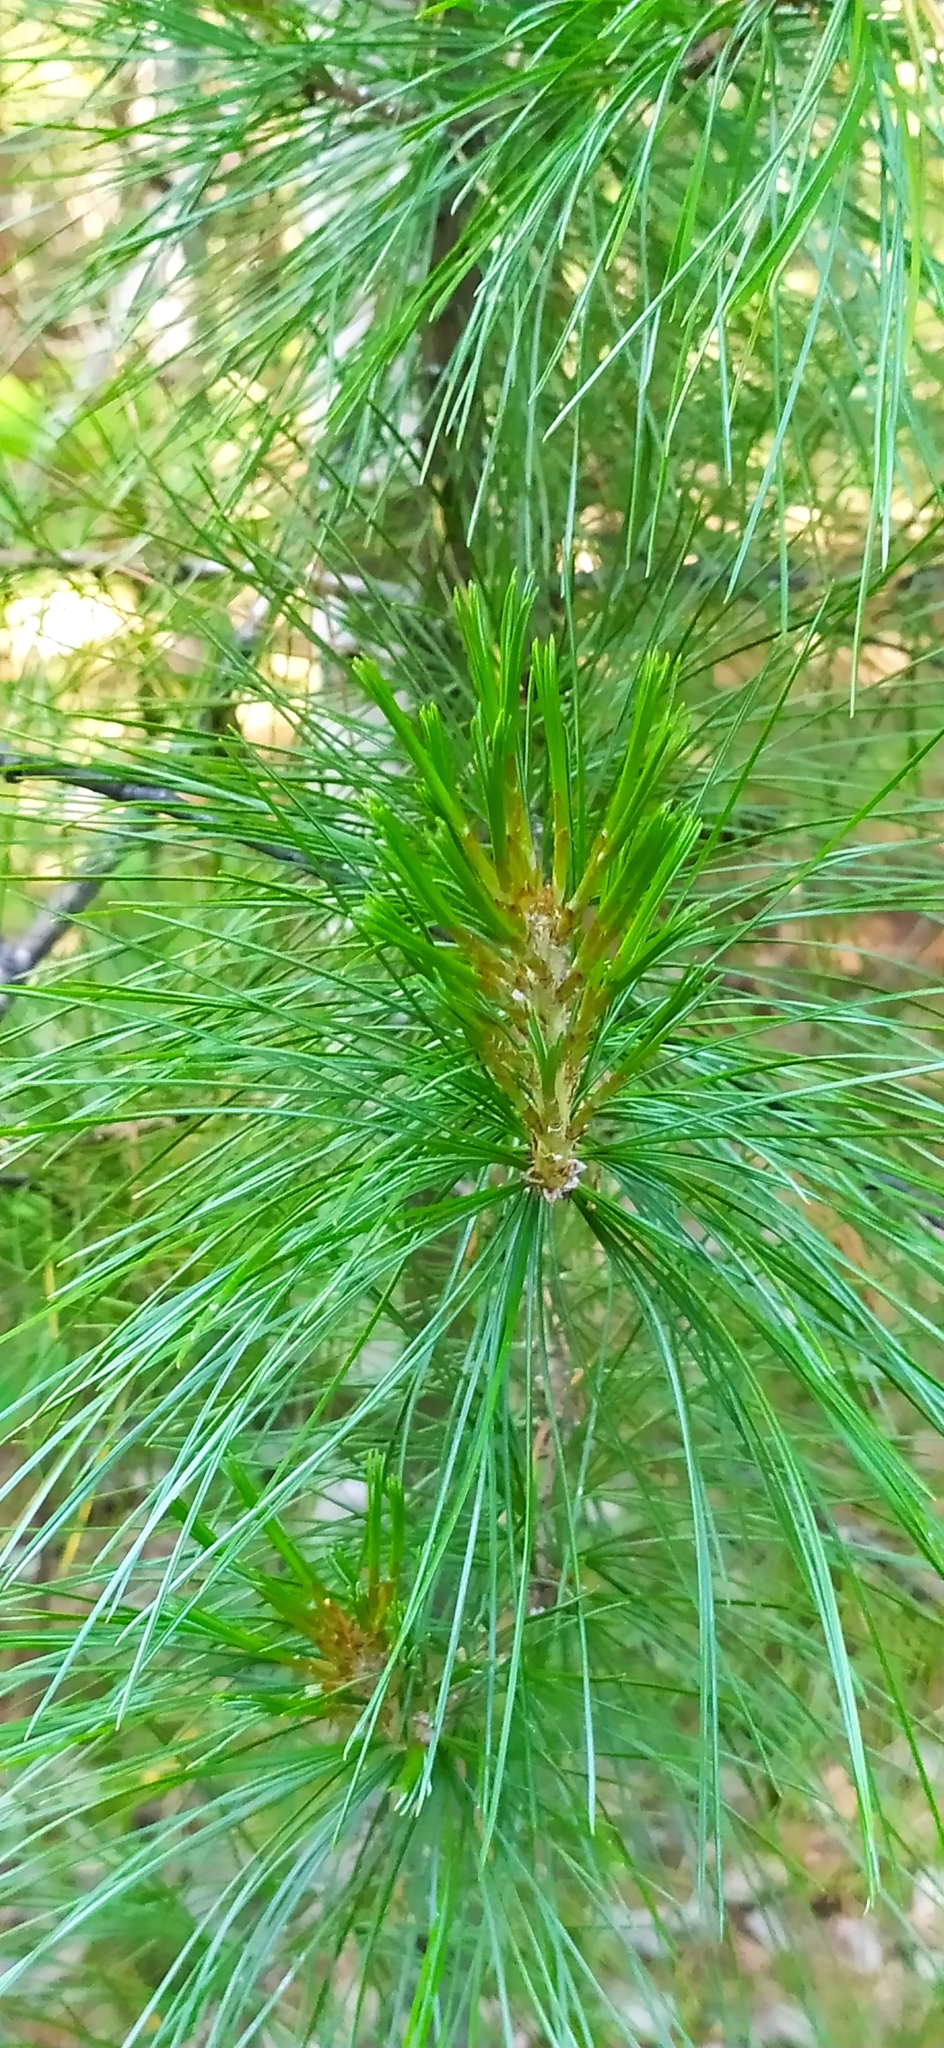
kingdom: Plantae
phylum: Tracheophyta
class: Pinopsida
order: Pinales
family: Pinaceae
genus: Pinus
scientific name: Pinus sibirica
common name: Siberian pine
